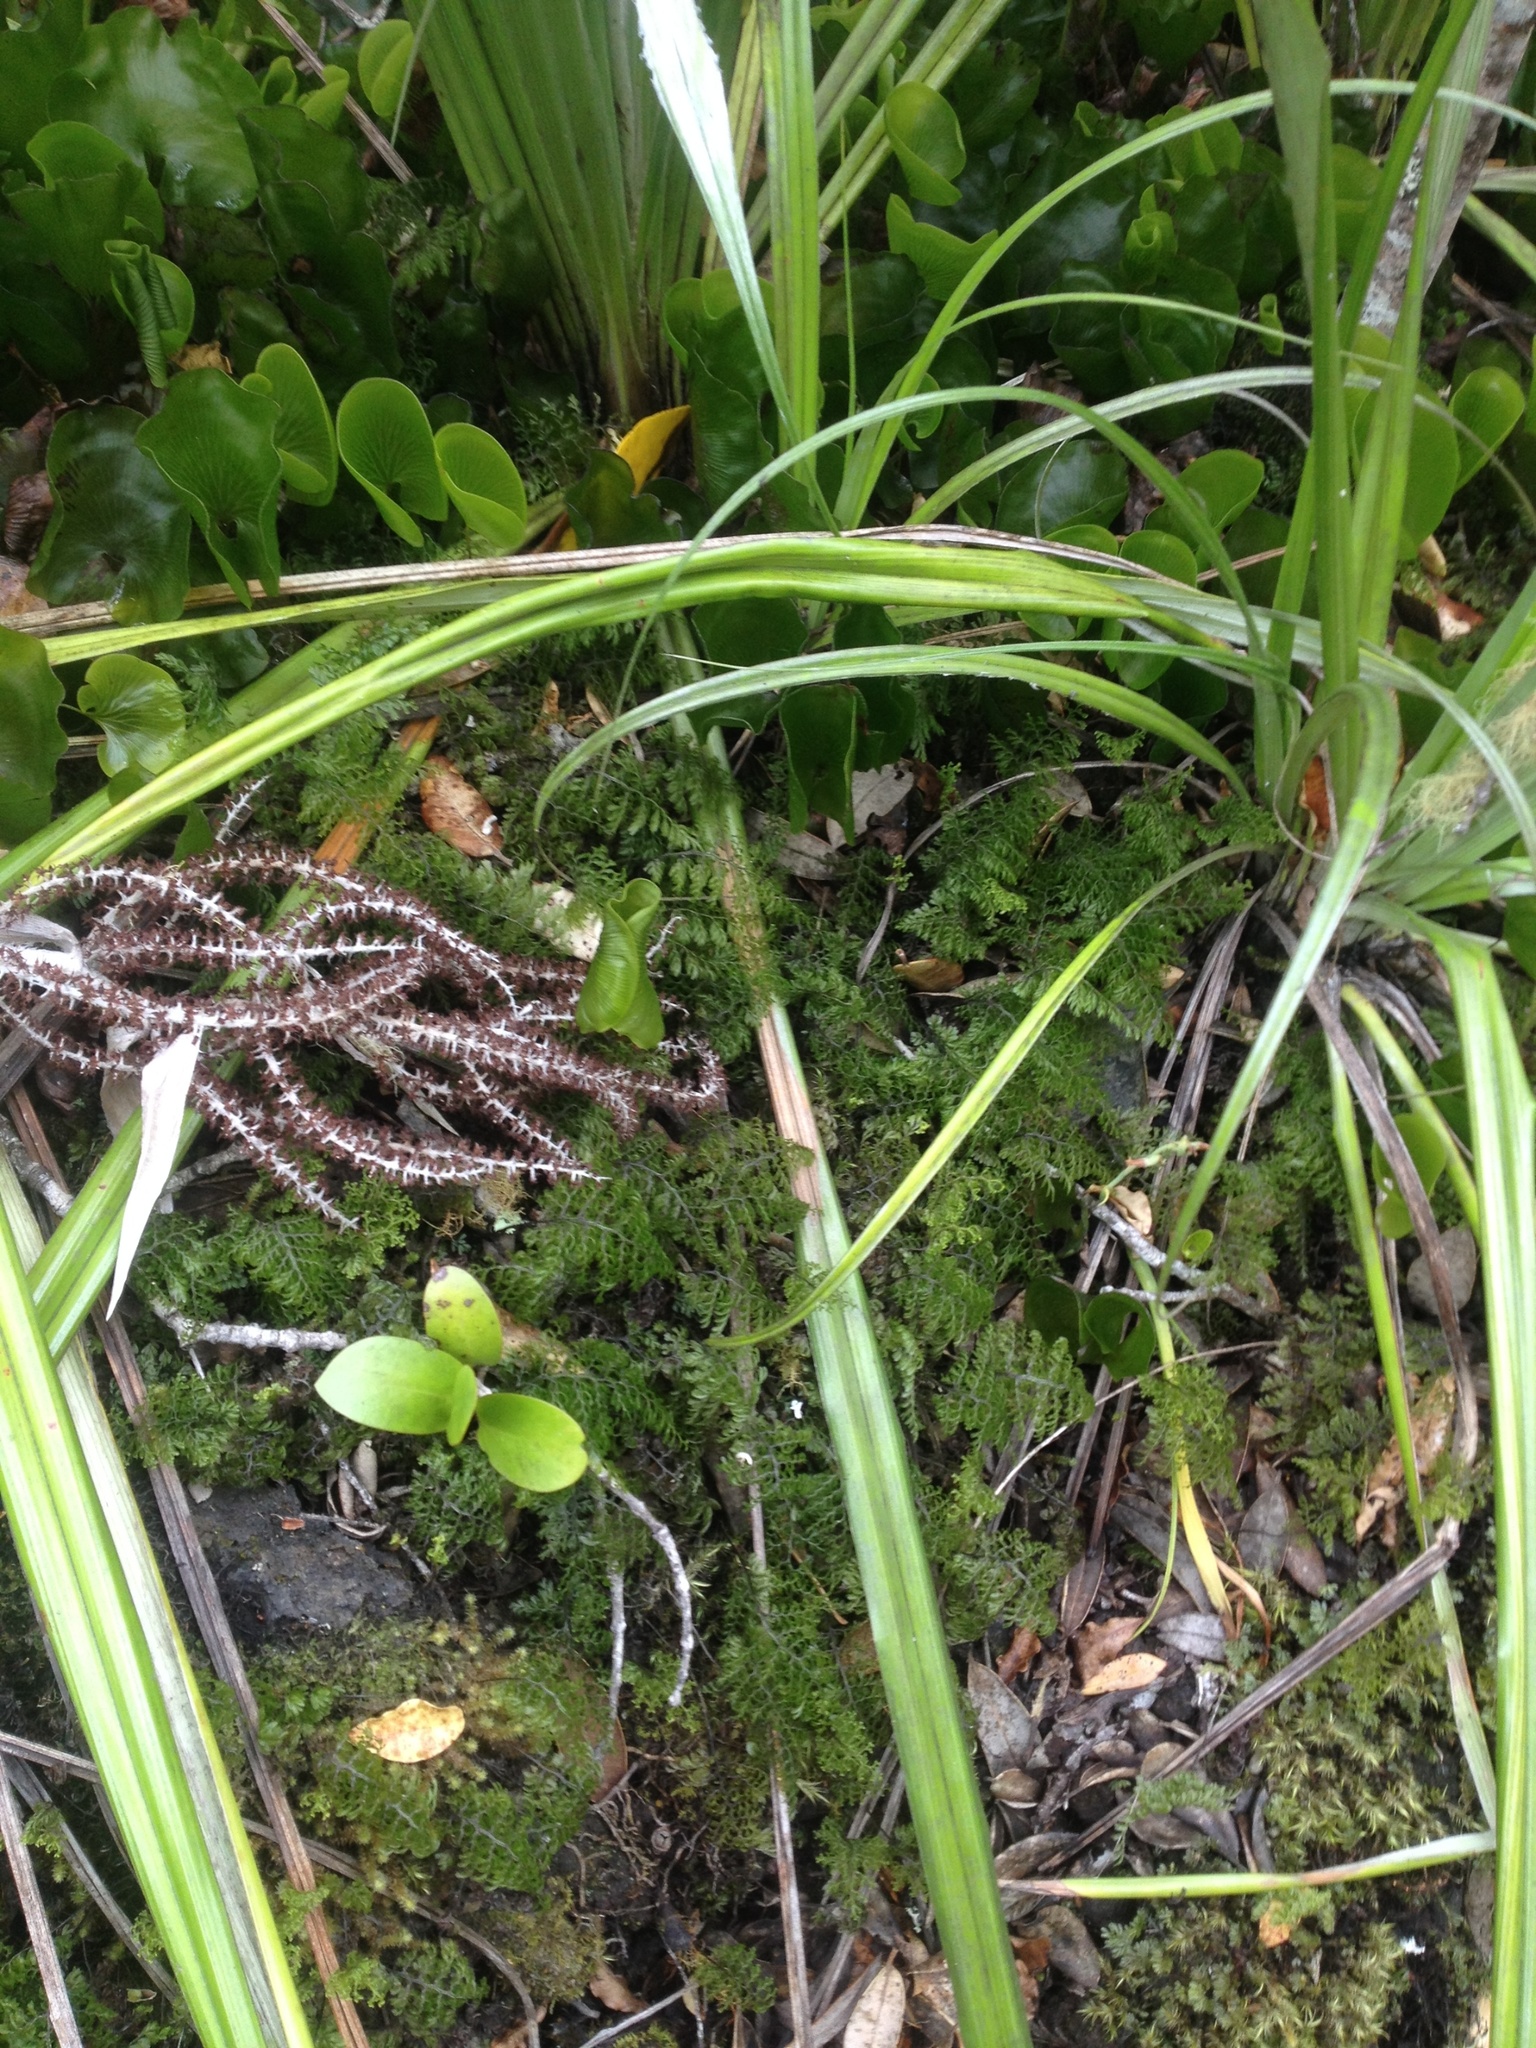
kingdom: Plantae
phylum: Tracheophyta
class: Polypodiopsida
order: Hymenophyllales
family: Hymenophyllaceae
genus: Hymenophyllum
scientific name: Hymenophyllum sanguinolentum
